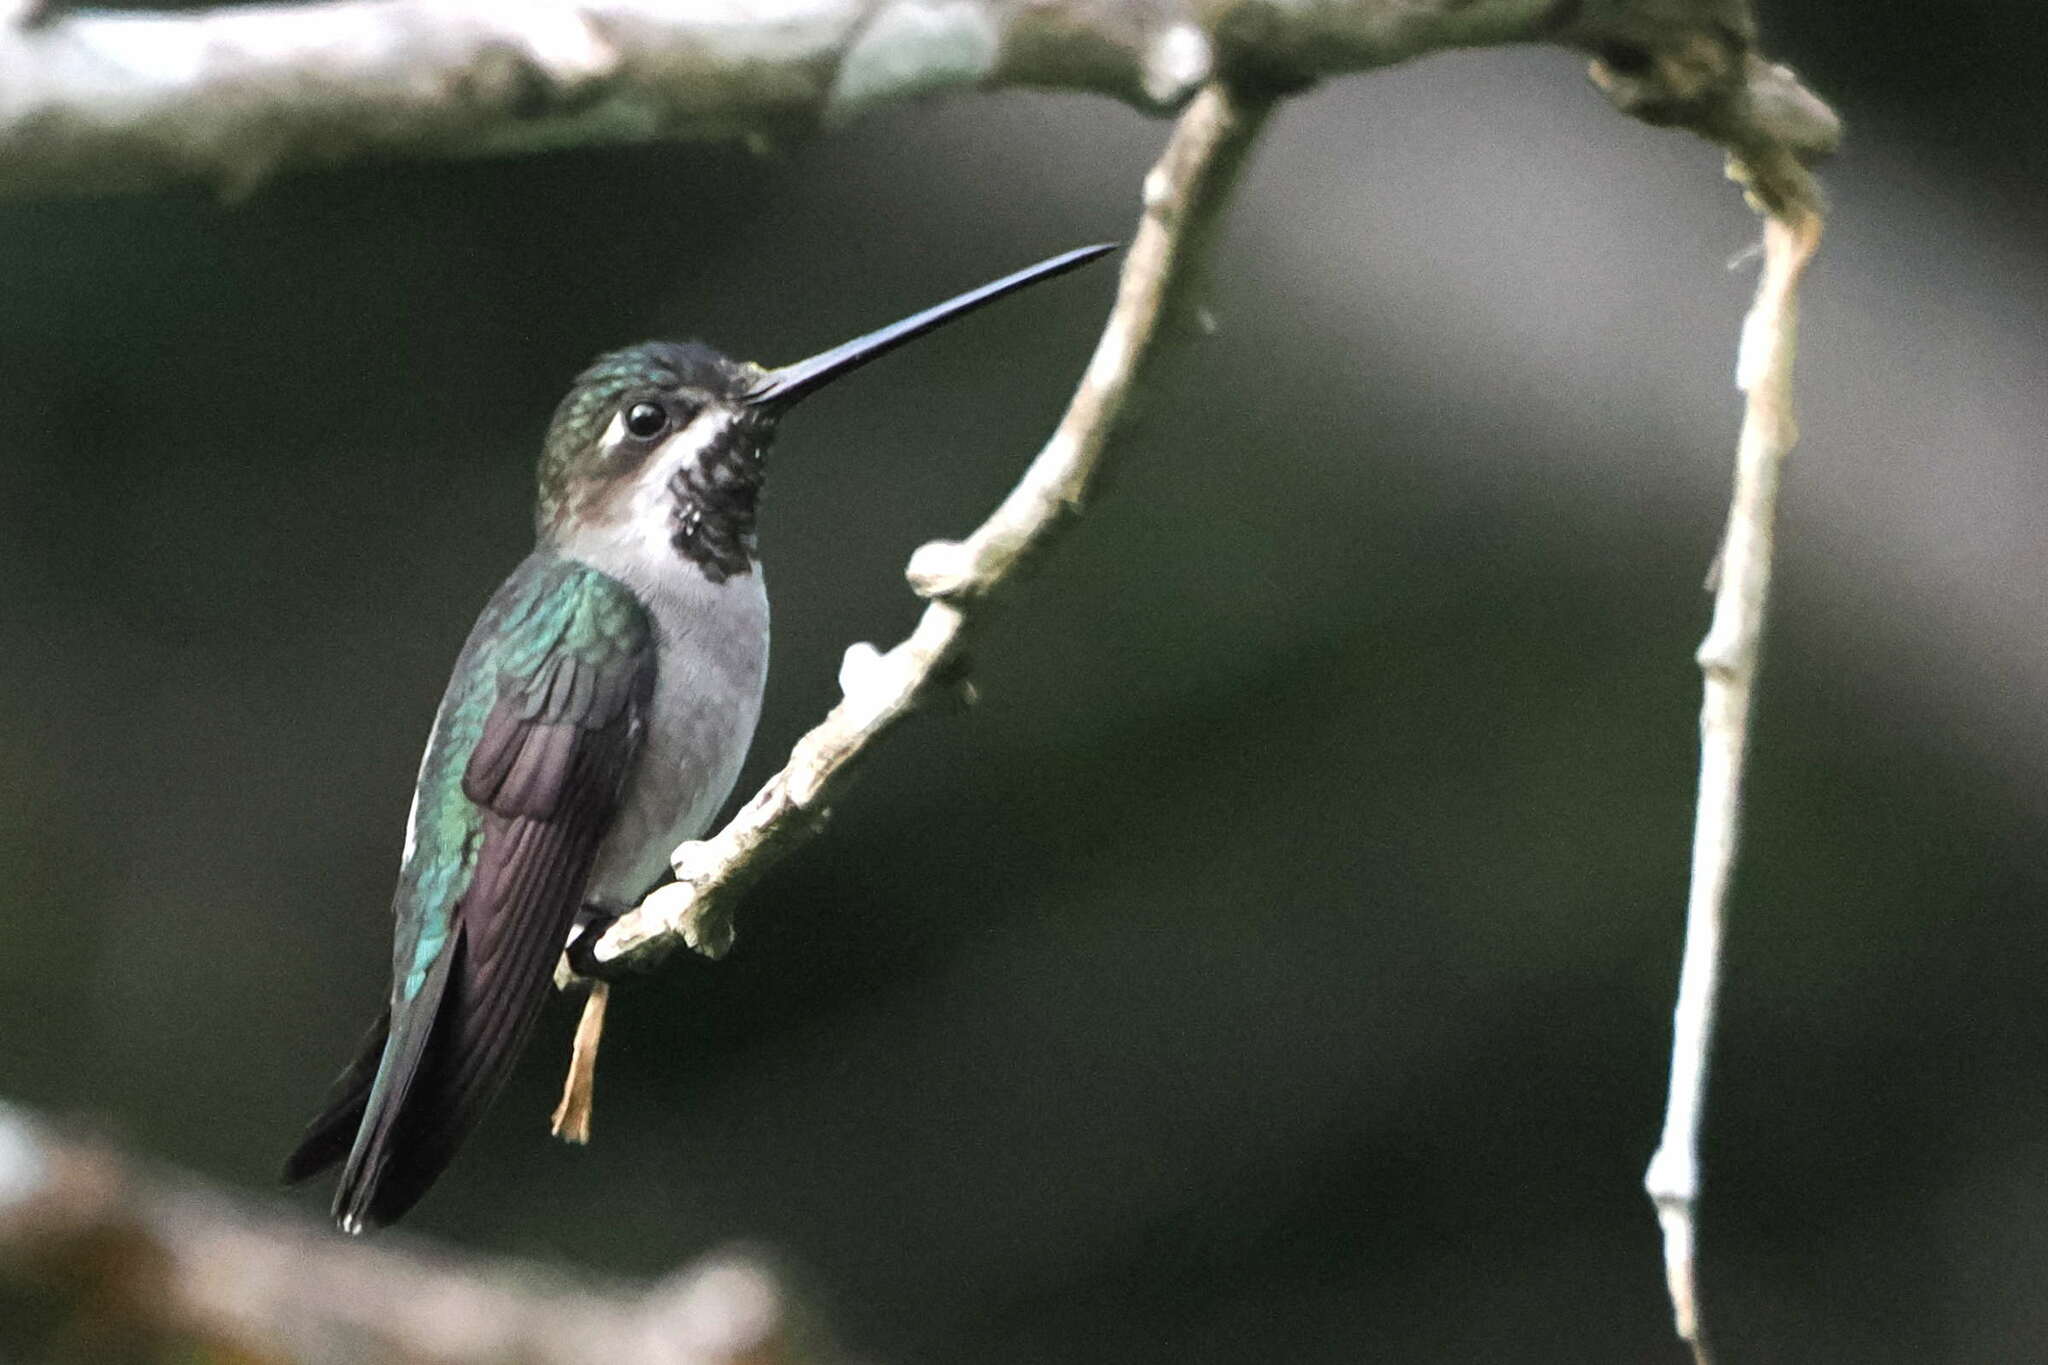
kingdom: Animalia
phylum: Chordata
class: Aves
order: Apodiformes
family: Trochilidae
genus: Heliomaster
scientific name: Heliomaster longirostris
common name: Long-billed starthroat
